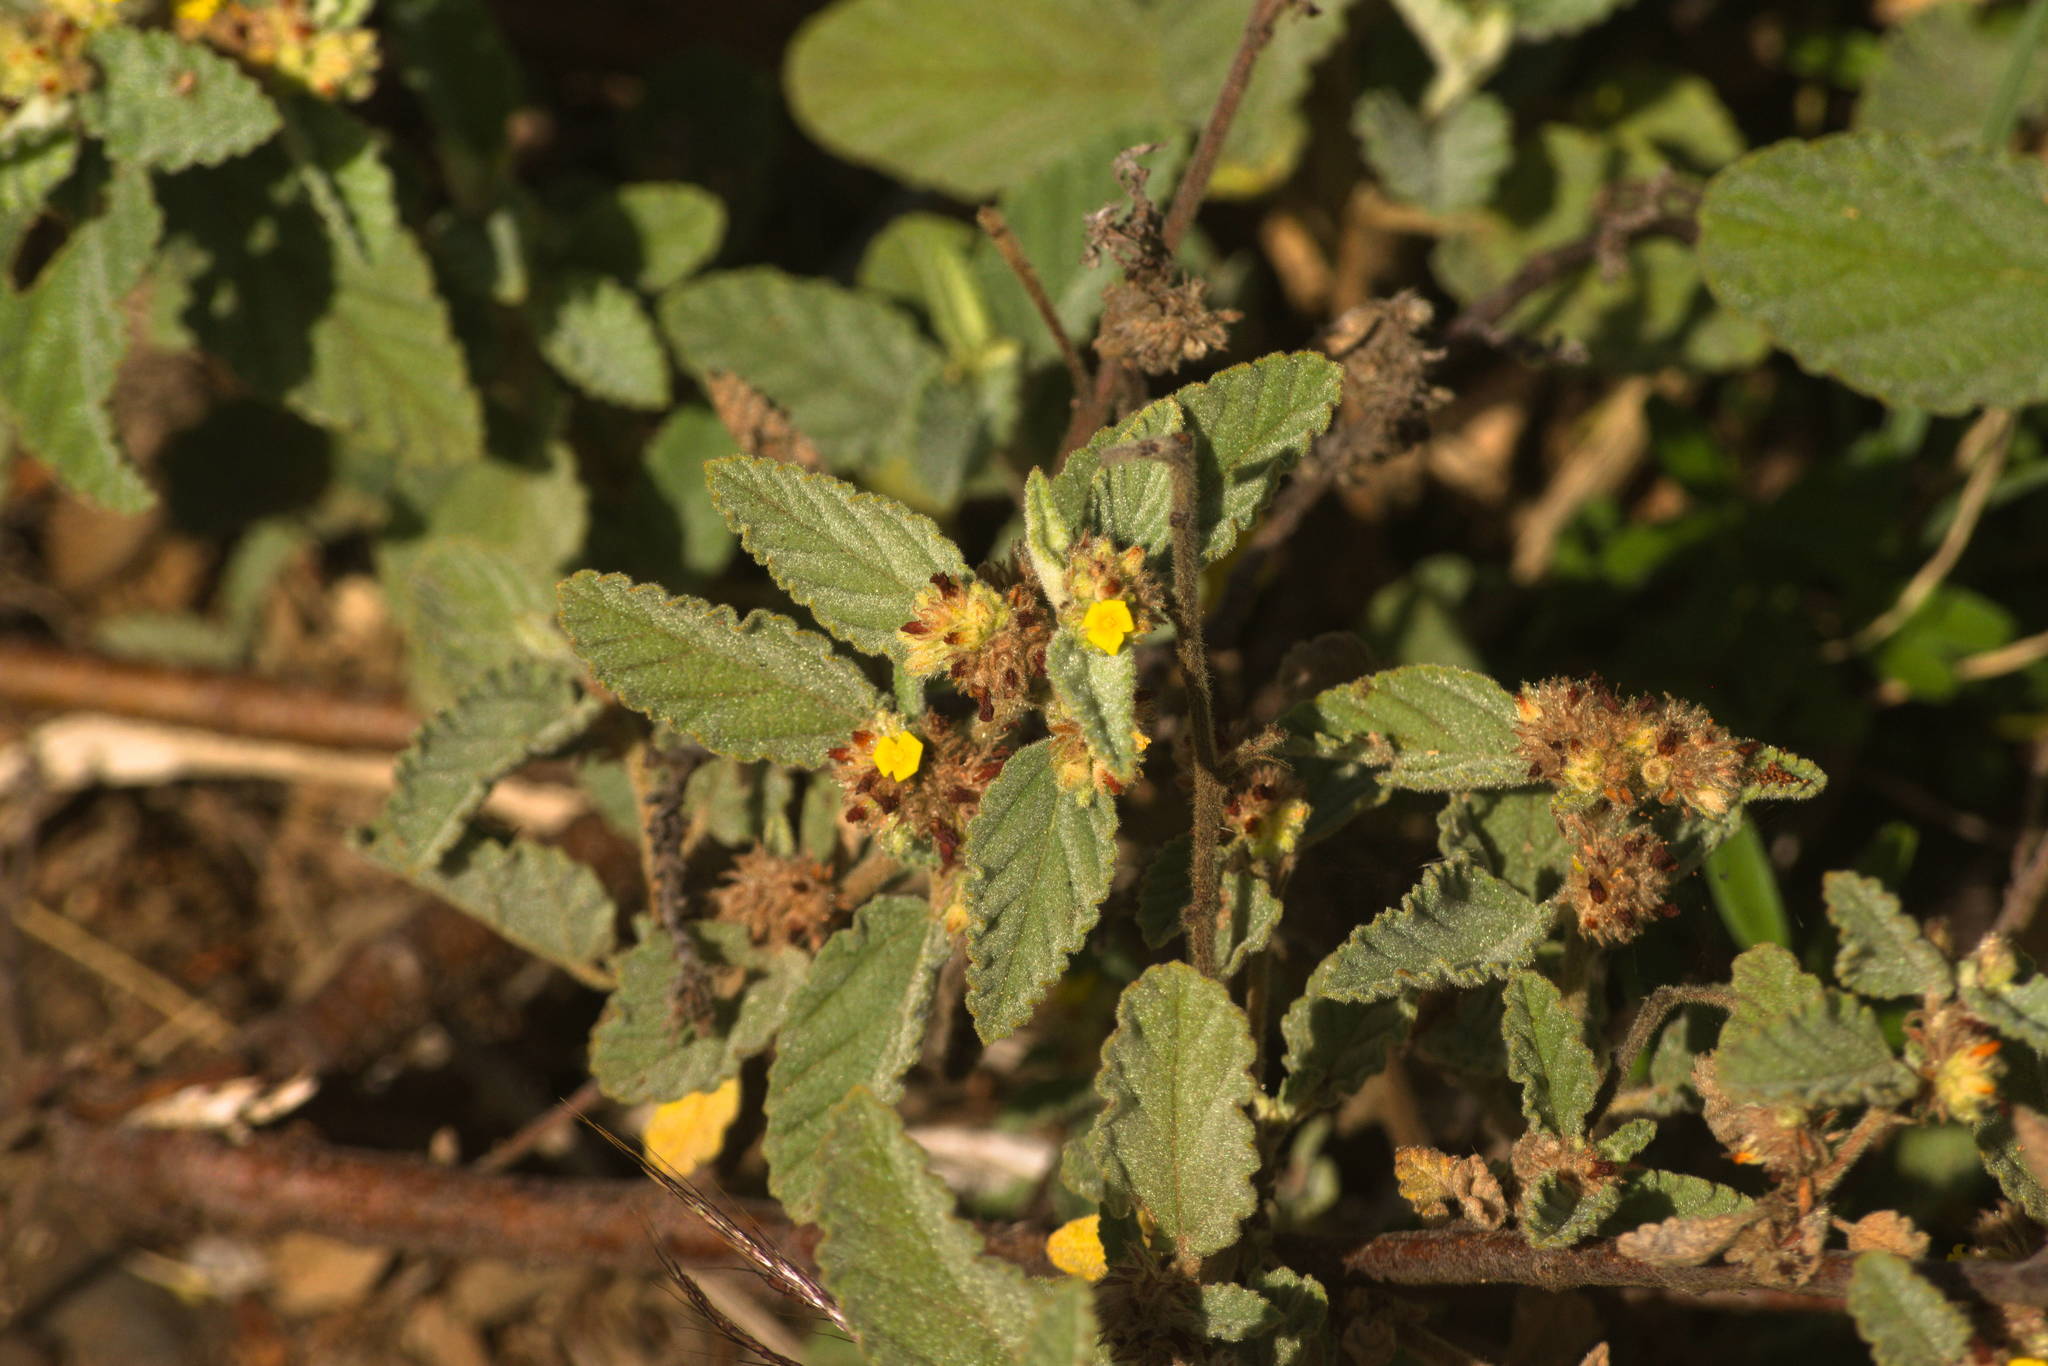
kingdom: Plantae
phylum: Tracheophyta
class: Magnoliopsida
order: Malvales
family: Malvaceae
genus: Waltheria
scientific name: Waltheria indica
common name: Leather-coat
